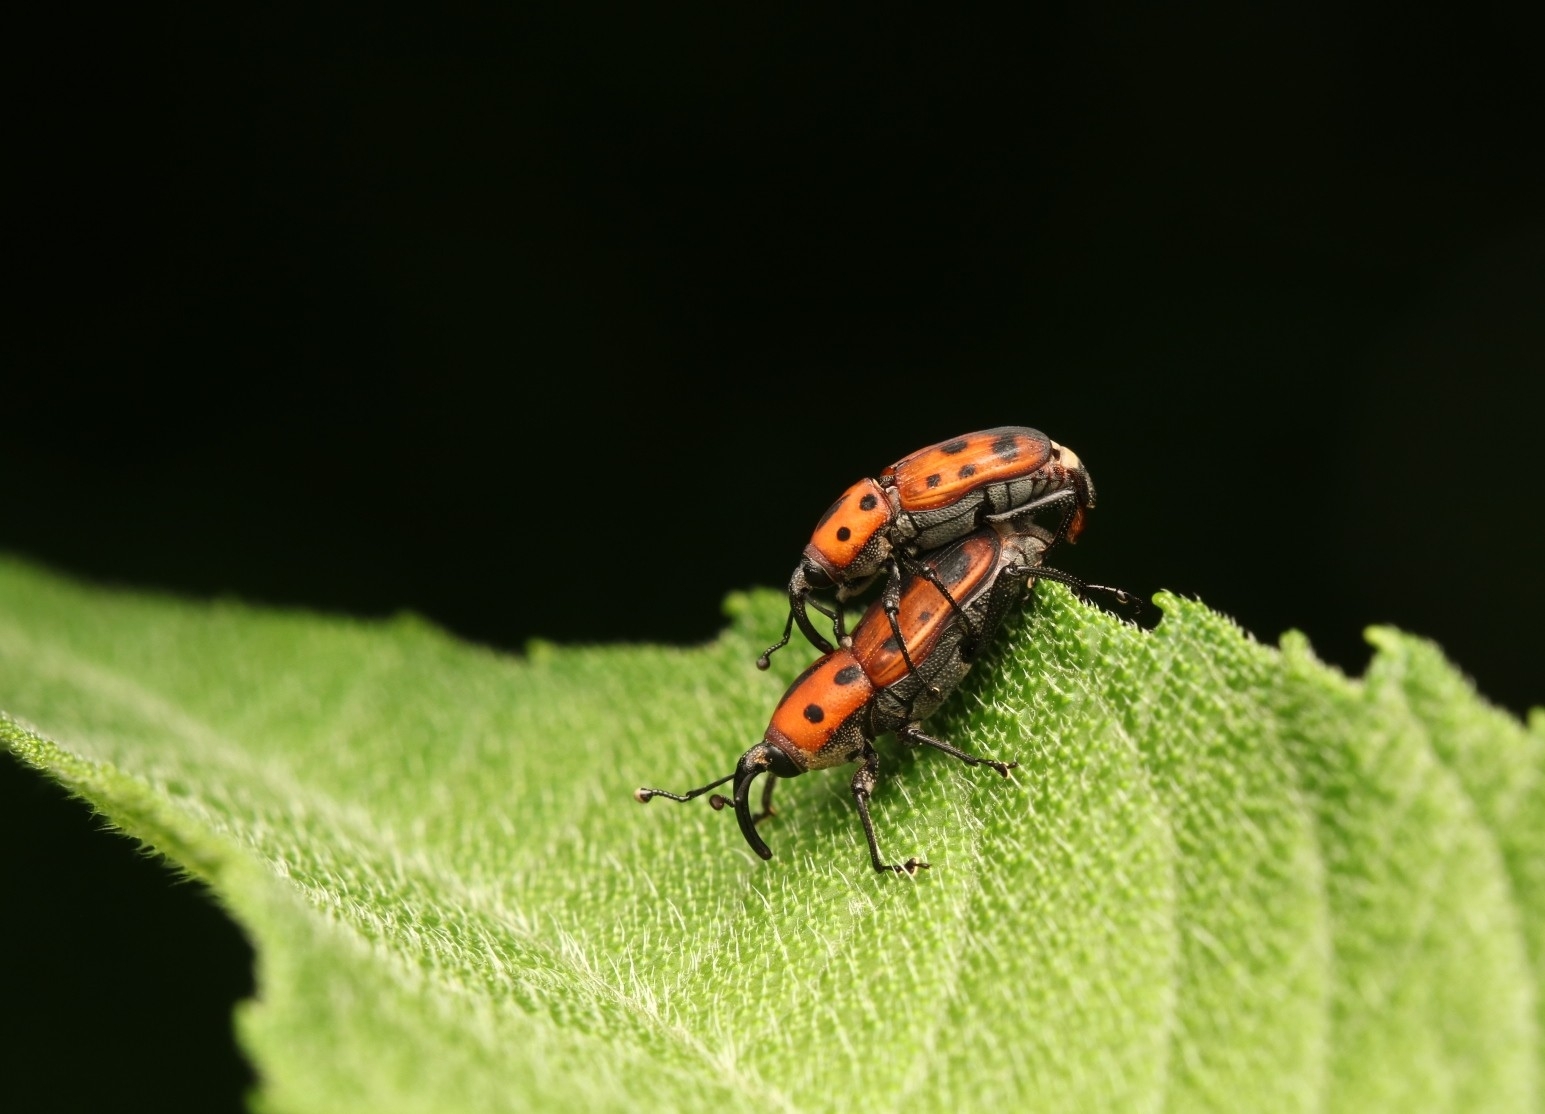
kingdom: Animalia
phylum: Arthropoda
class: Insecta
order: Coleoptera
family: Dryophthoridae
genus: Rhodobaenus
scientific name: Rhodobaenus tredecimpunctatus
